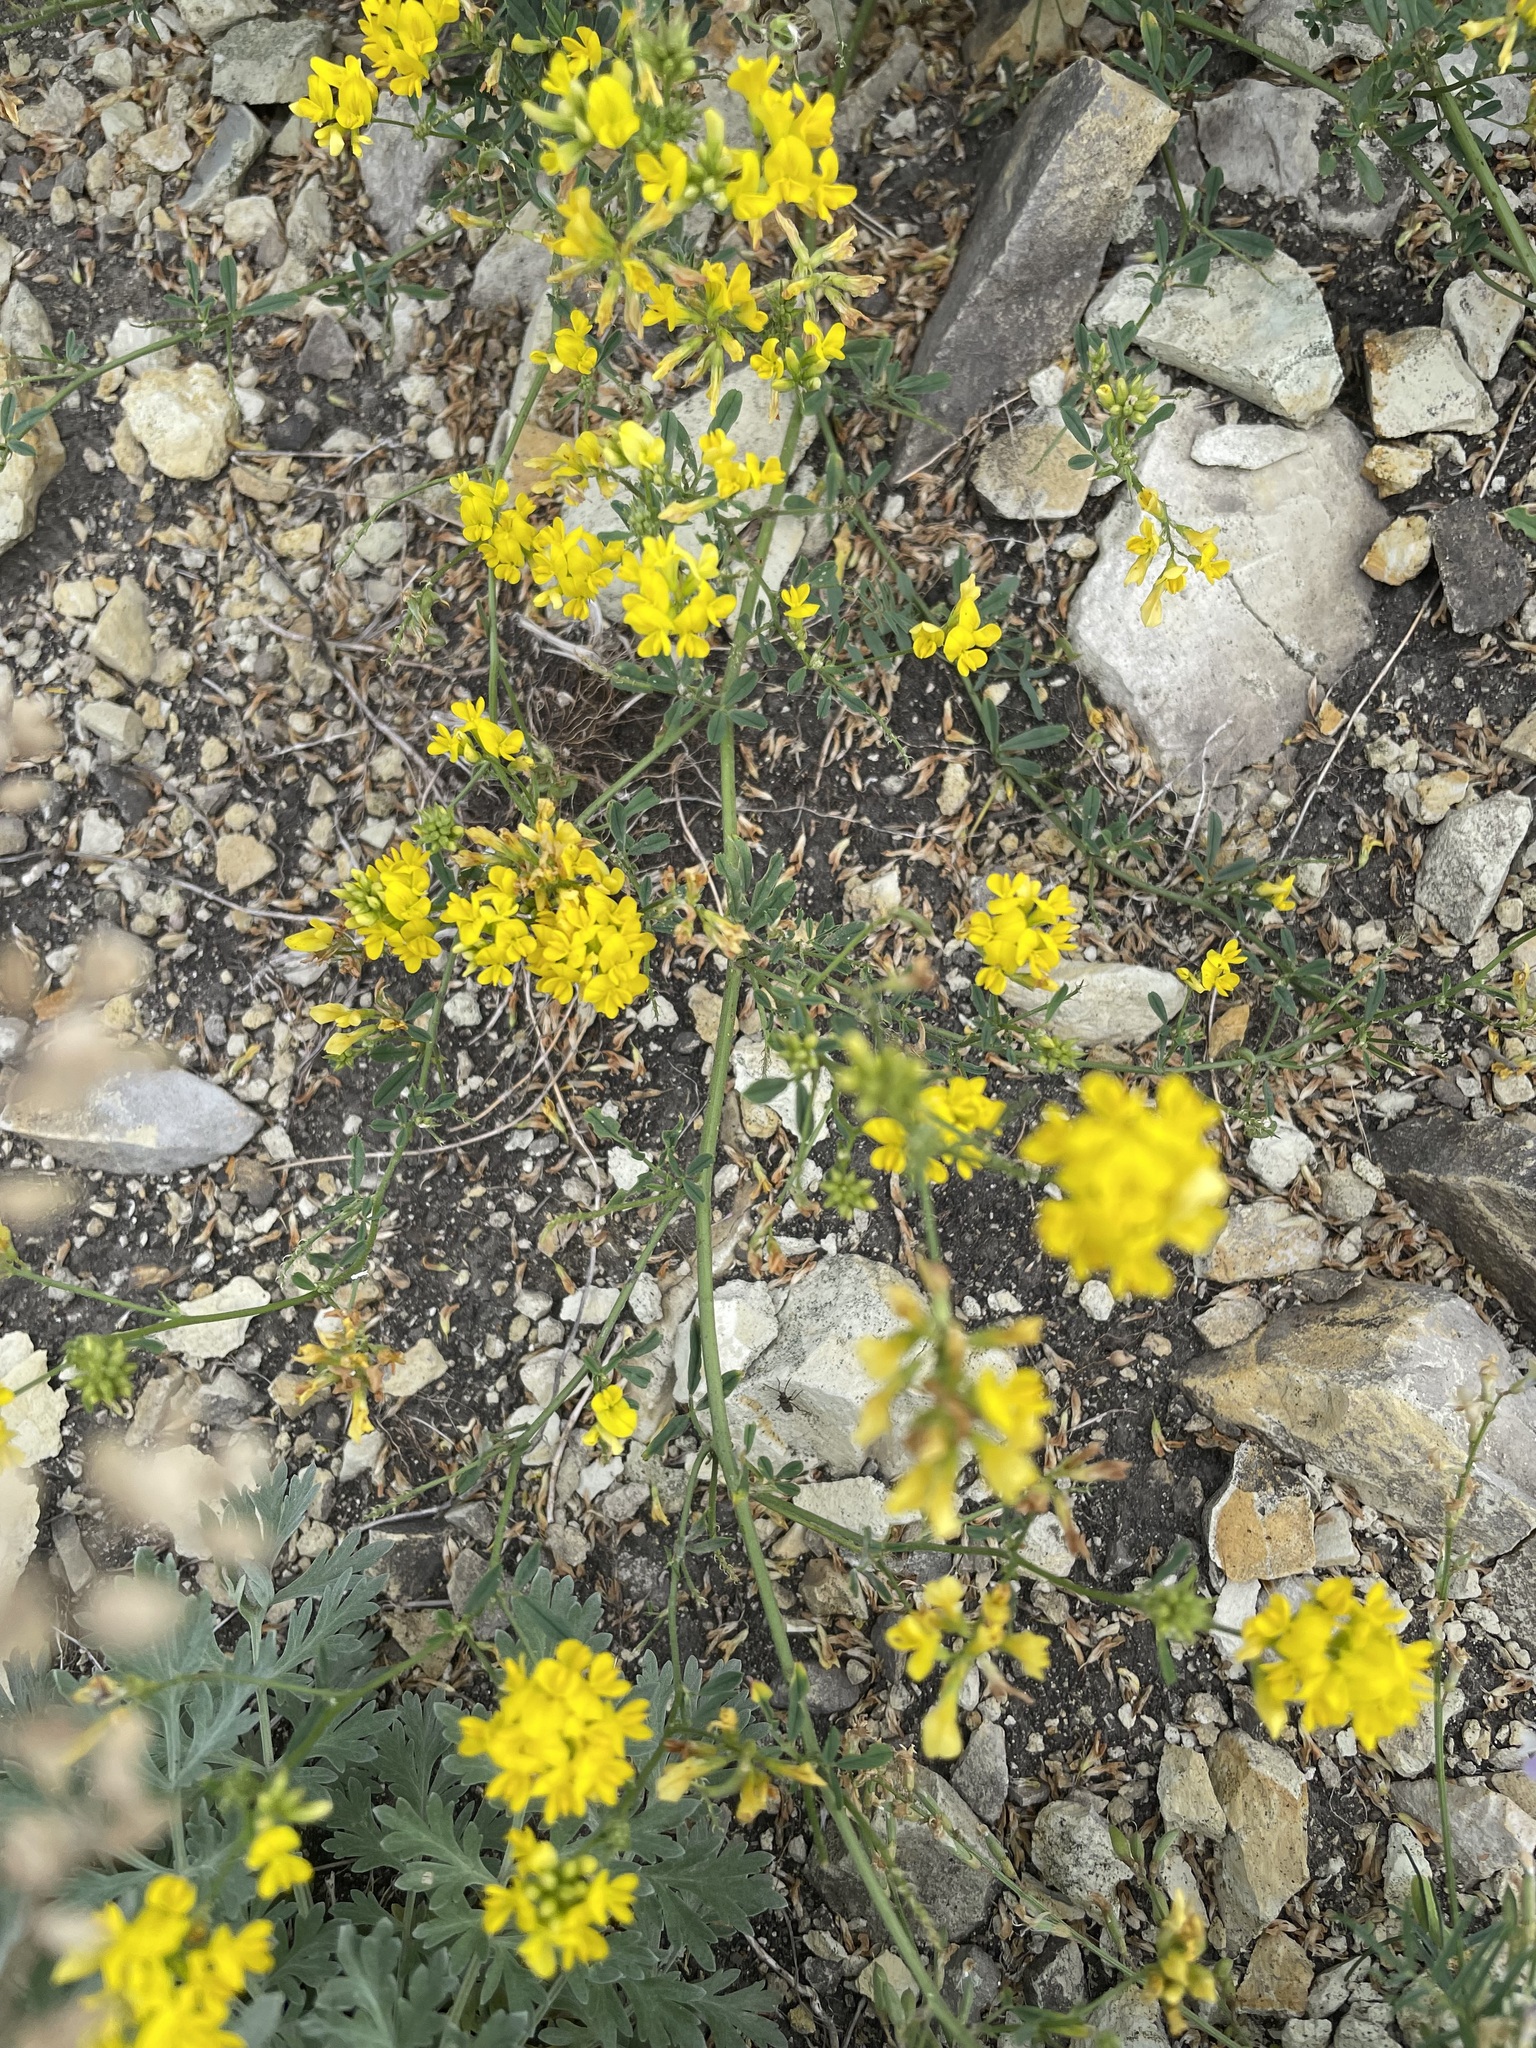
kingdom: Plantae
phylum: Tracheophyta
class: Magnoliopsida
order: Fabales
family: Fabaceae
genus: Medicago
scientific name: Medicago falcata
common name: Sickle medick
